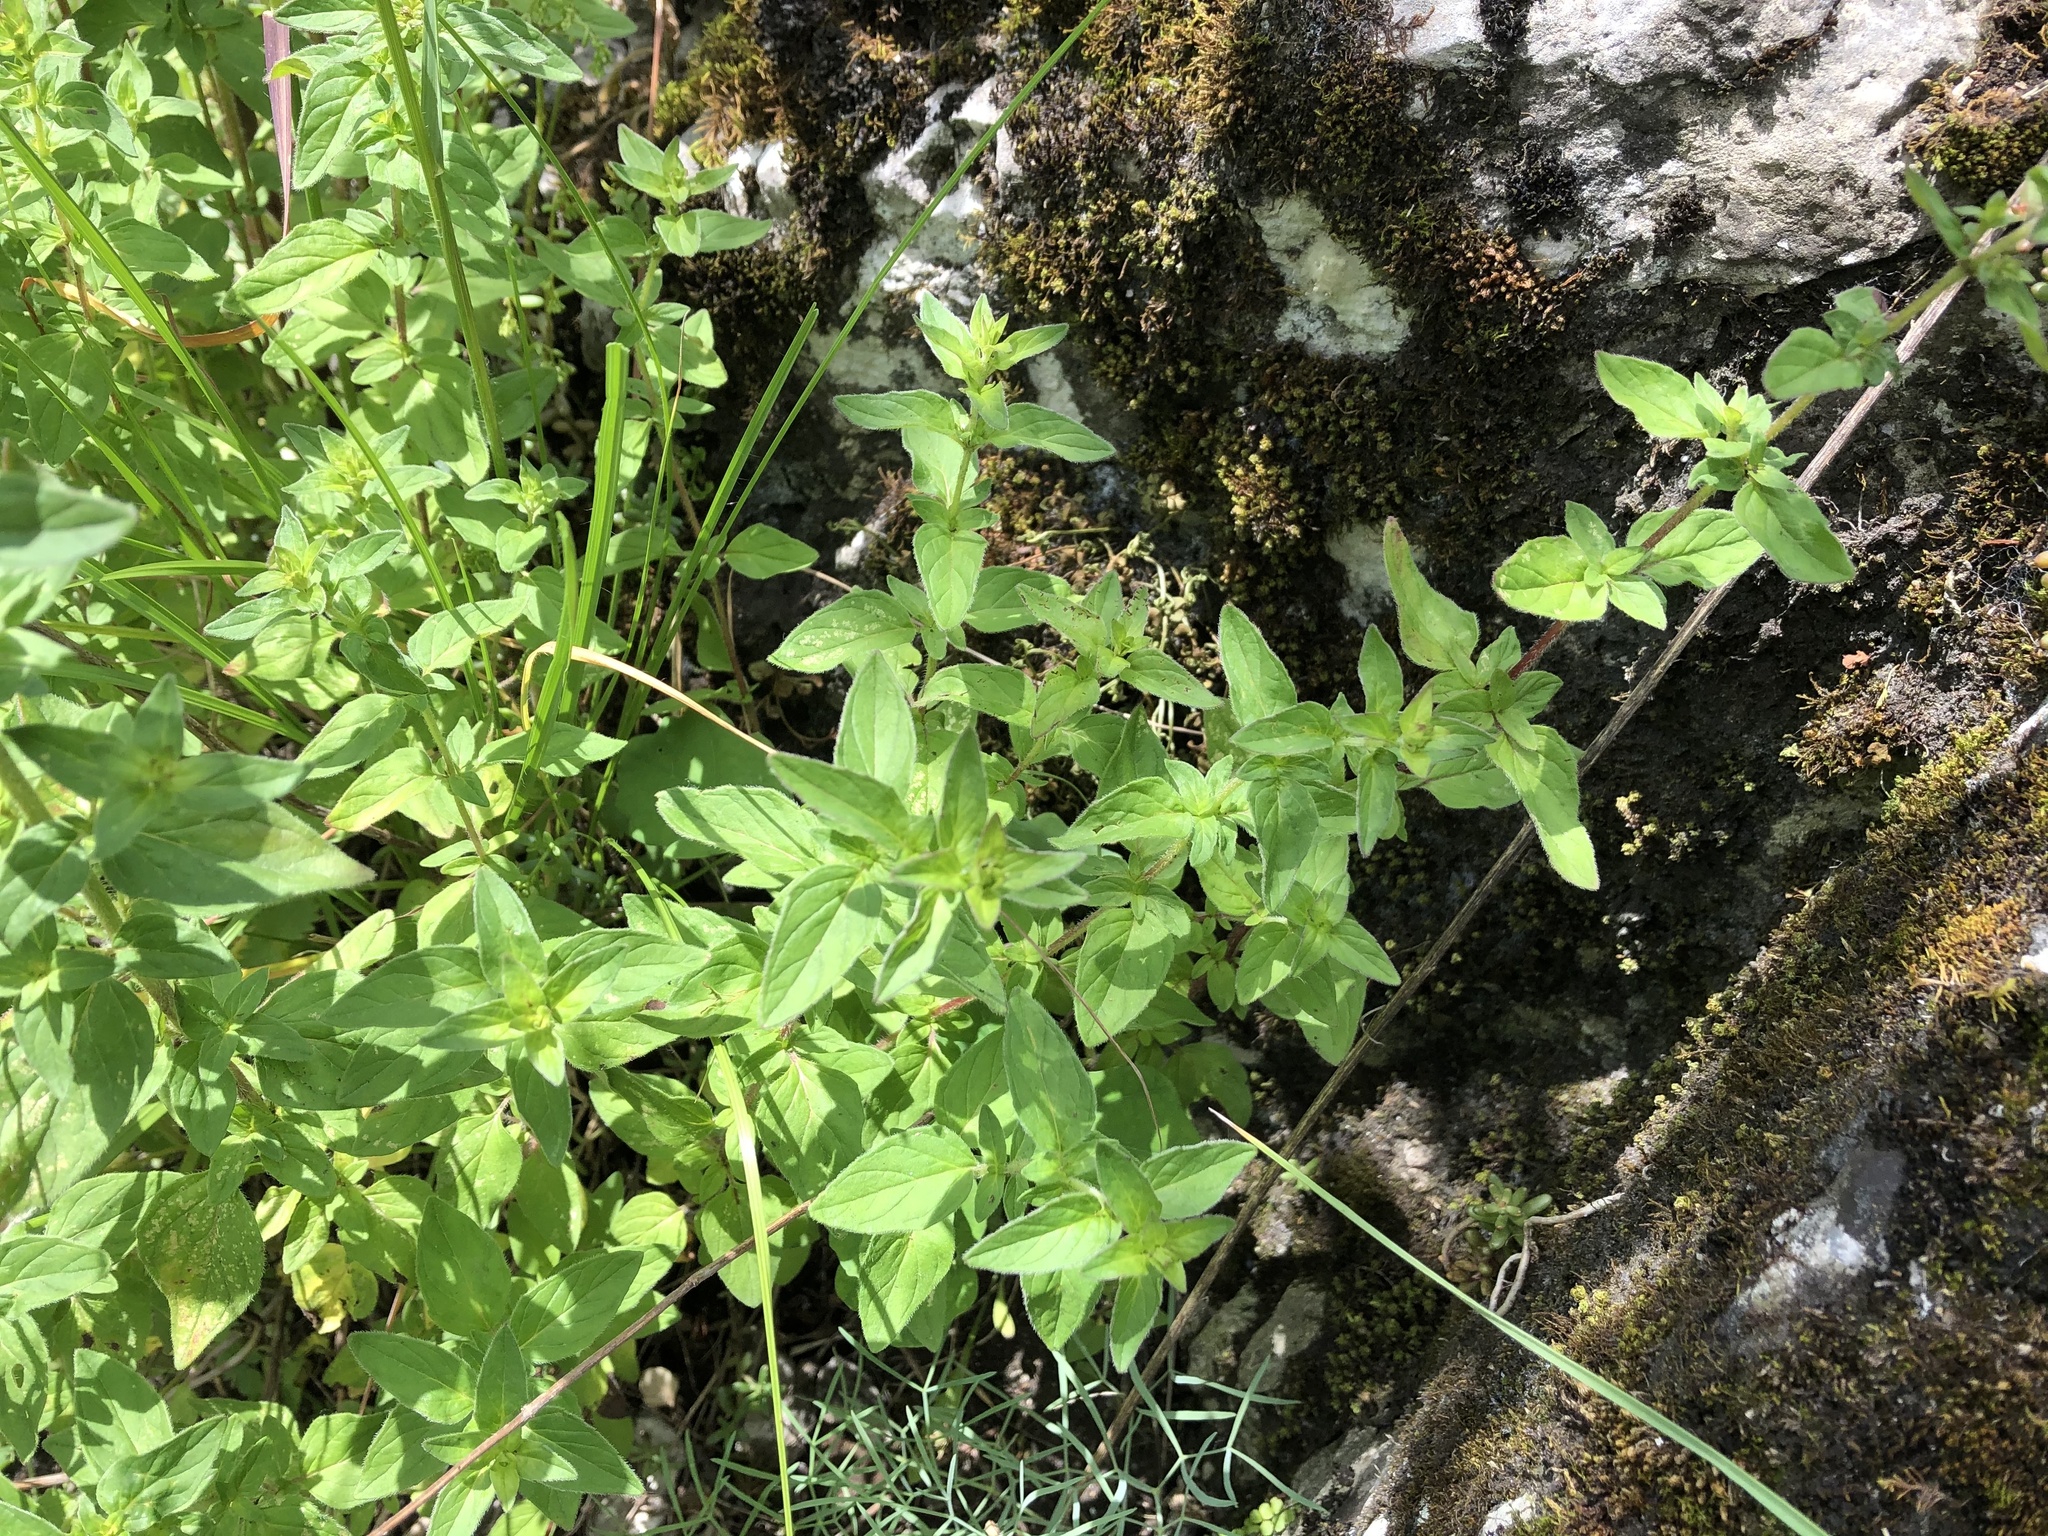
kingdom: Plantae
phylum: Tracheophyta
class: Magnoliopsida
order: Lamiales
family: Lamiaceae
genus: Origanum
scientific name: Origanum vulgare
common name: Wild marjoram
